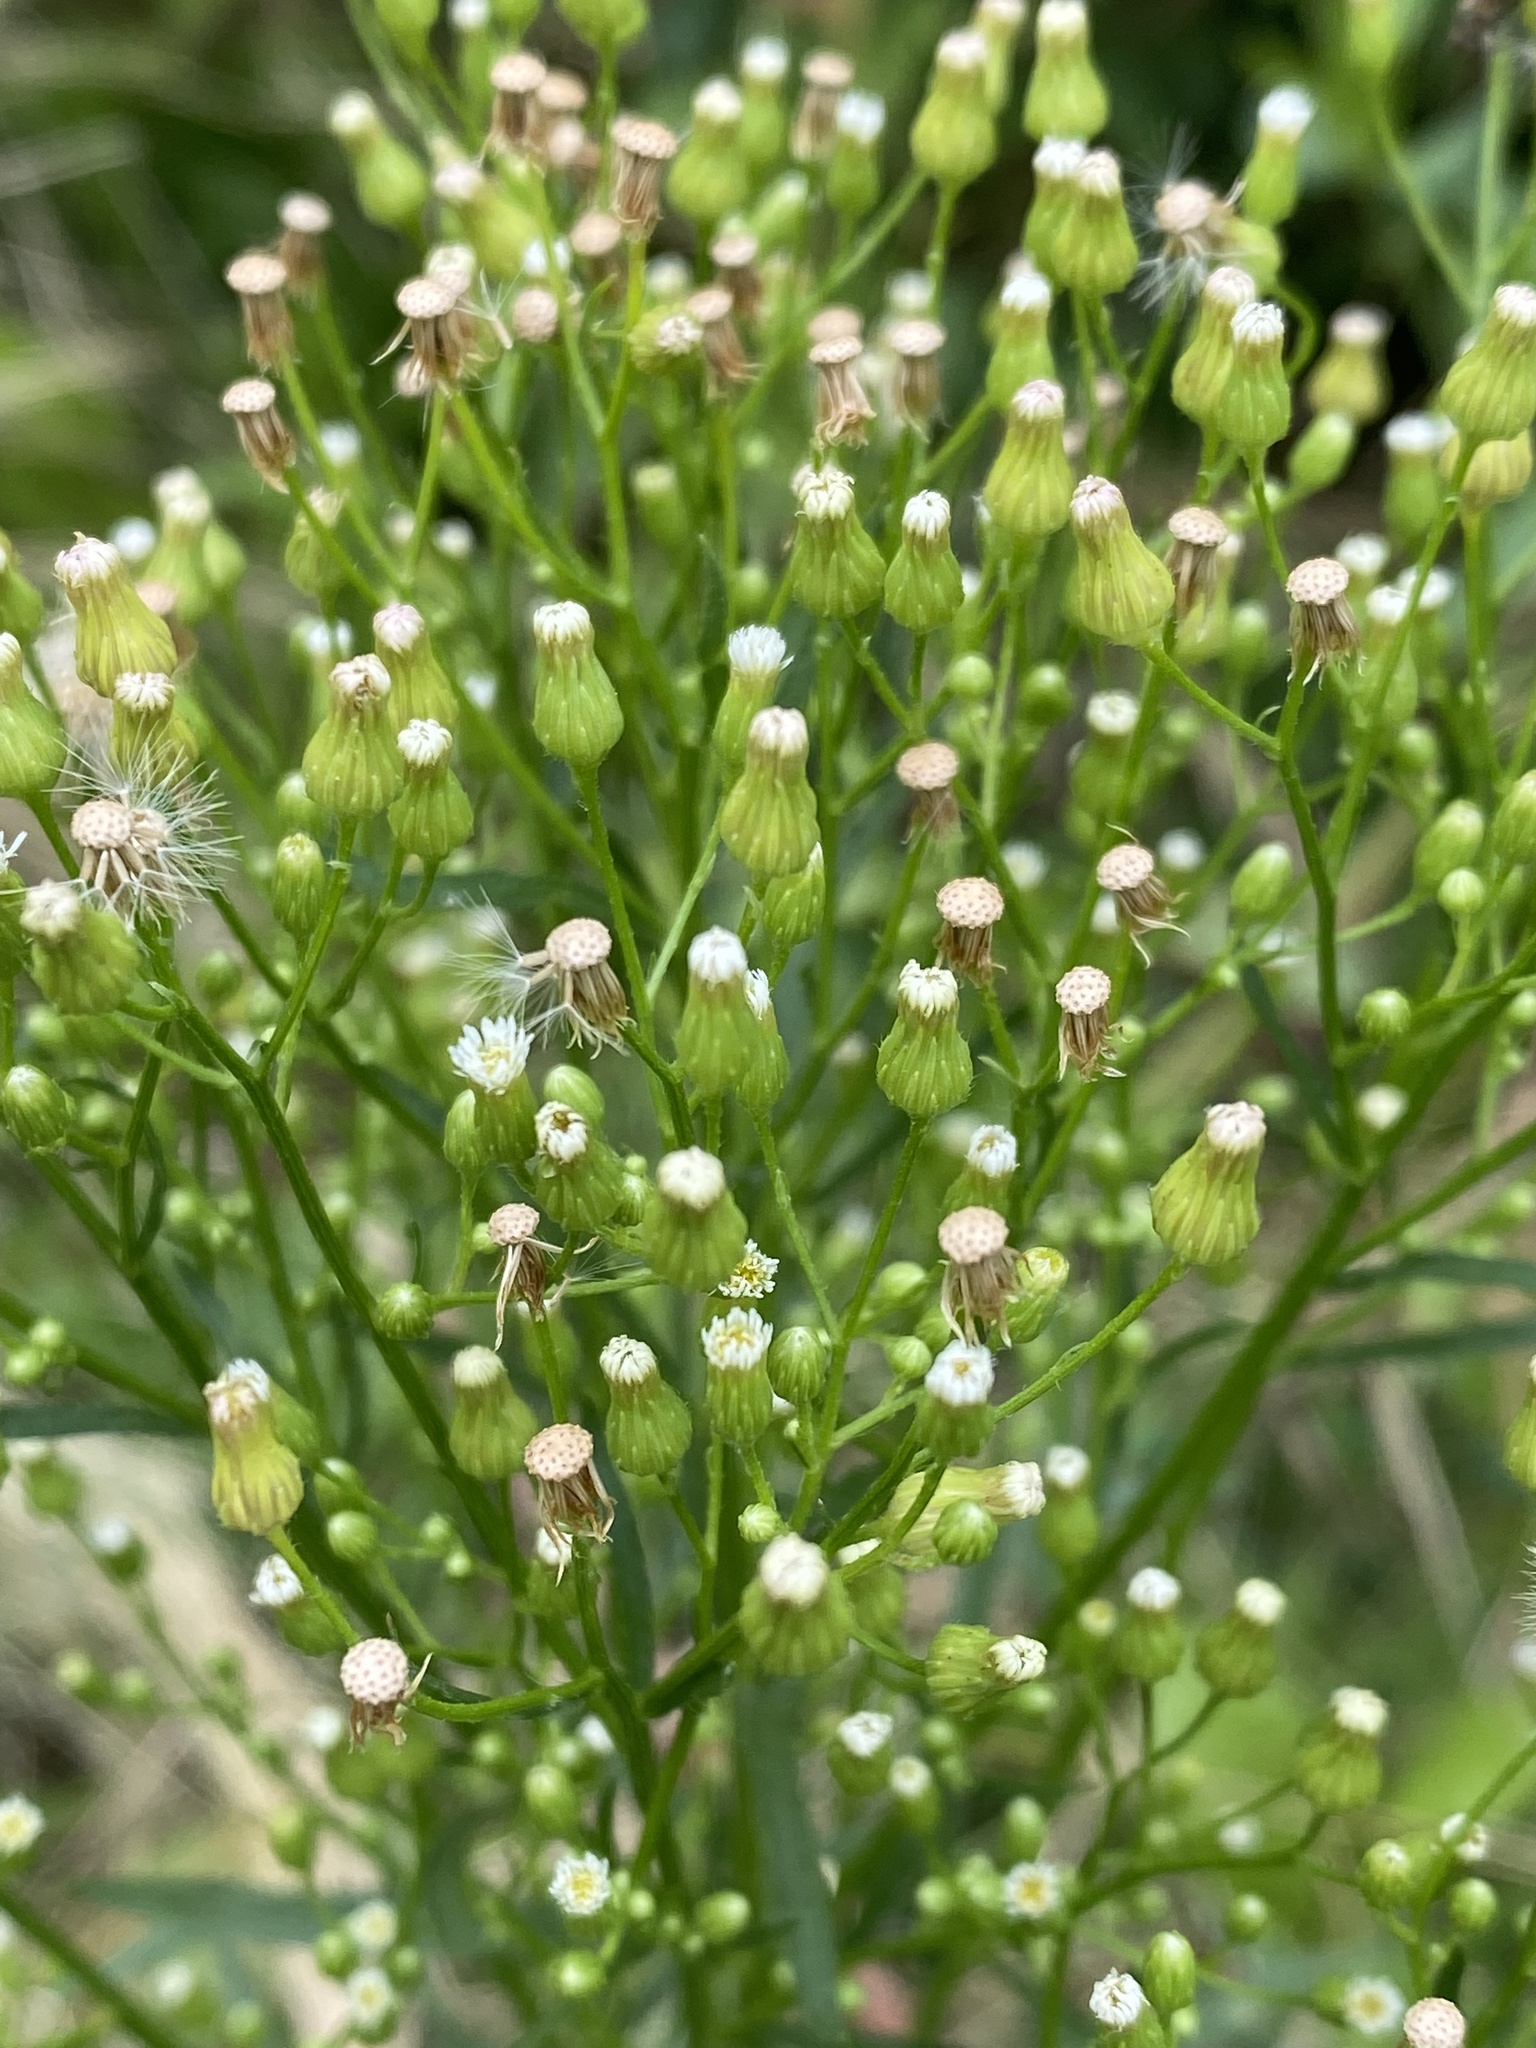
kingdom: Plantae
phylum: Tracheophyta
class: Magnoliopsida
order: Asterales
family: Asteraceae
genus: Erigeron
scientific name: Erigeron canadensis
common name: Canadian fleabane
